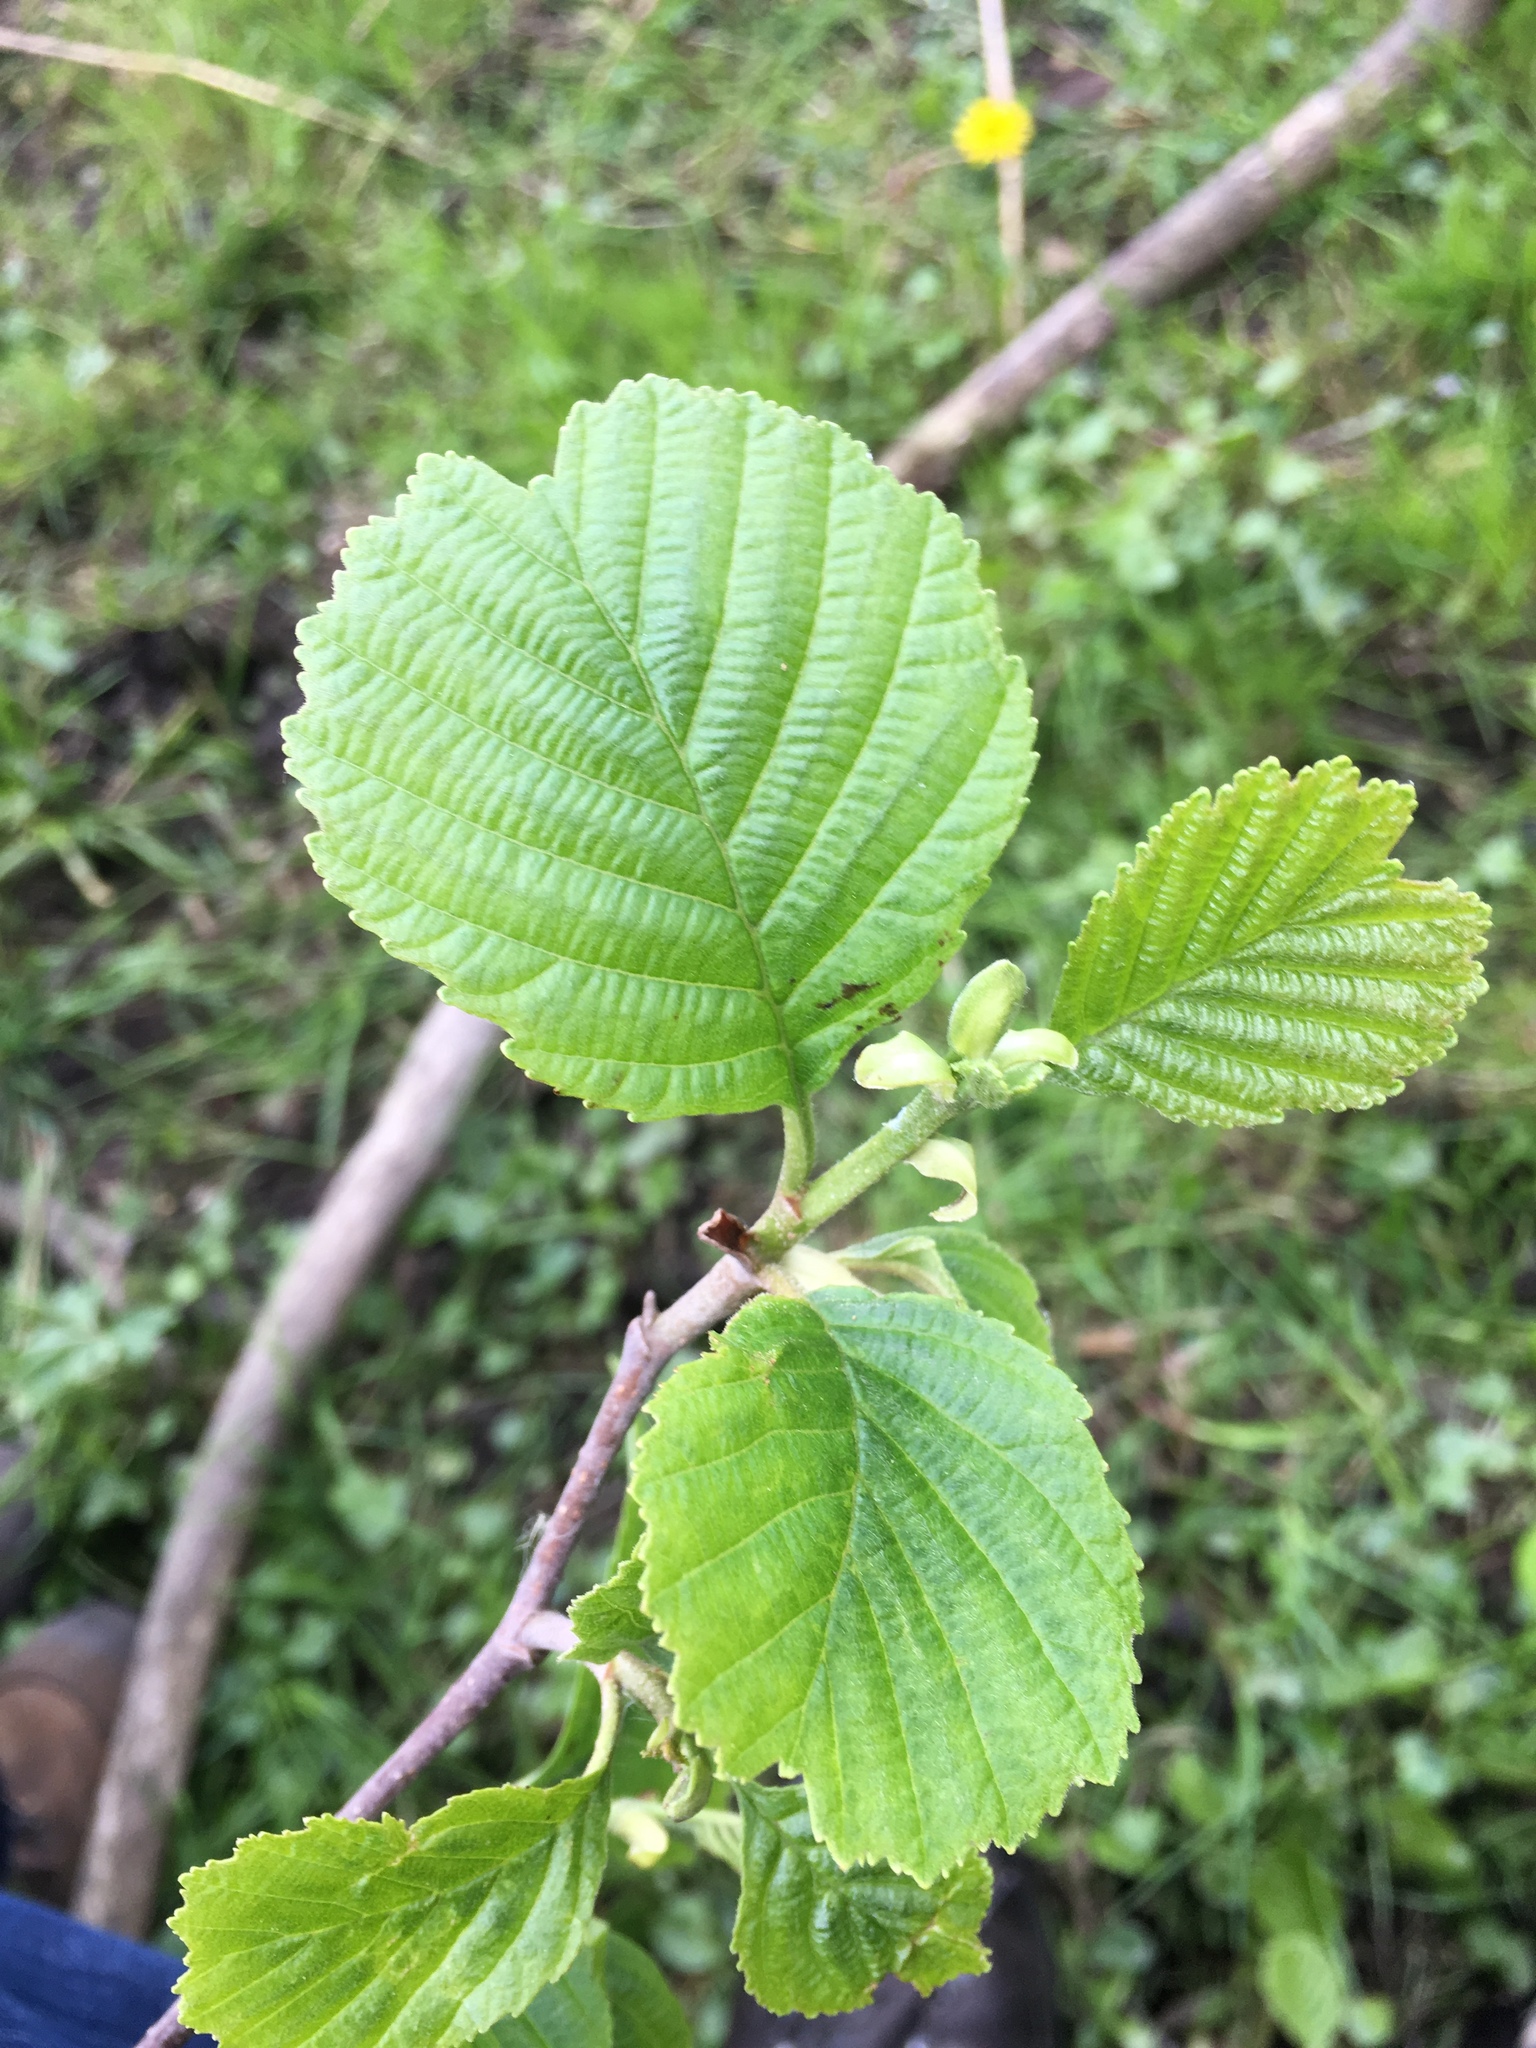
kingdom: Plantae
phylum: Tracheophyta
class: Magnoliopsida
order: Fagales
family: Betulaceae
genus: Alnus
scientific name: Alnus glutinosa
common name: Black alder
